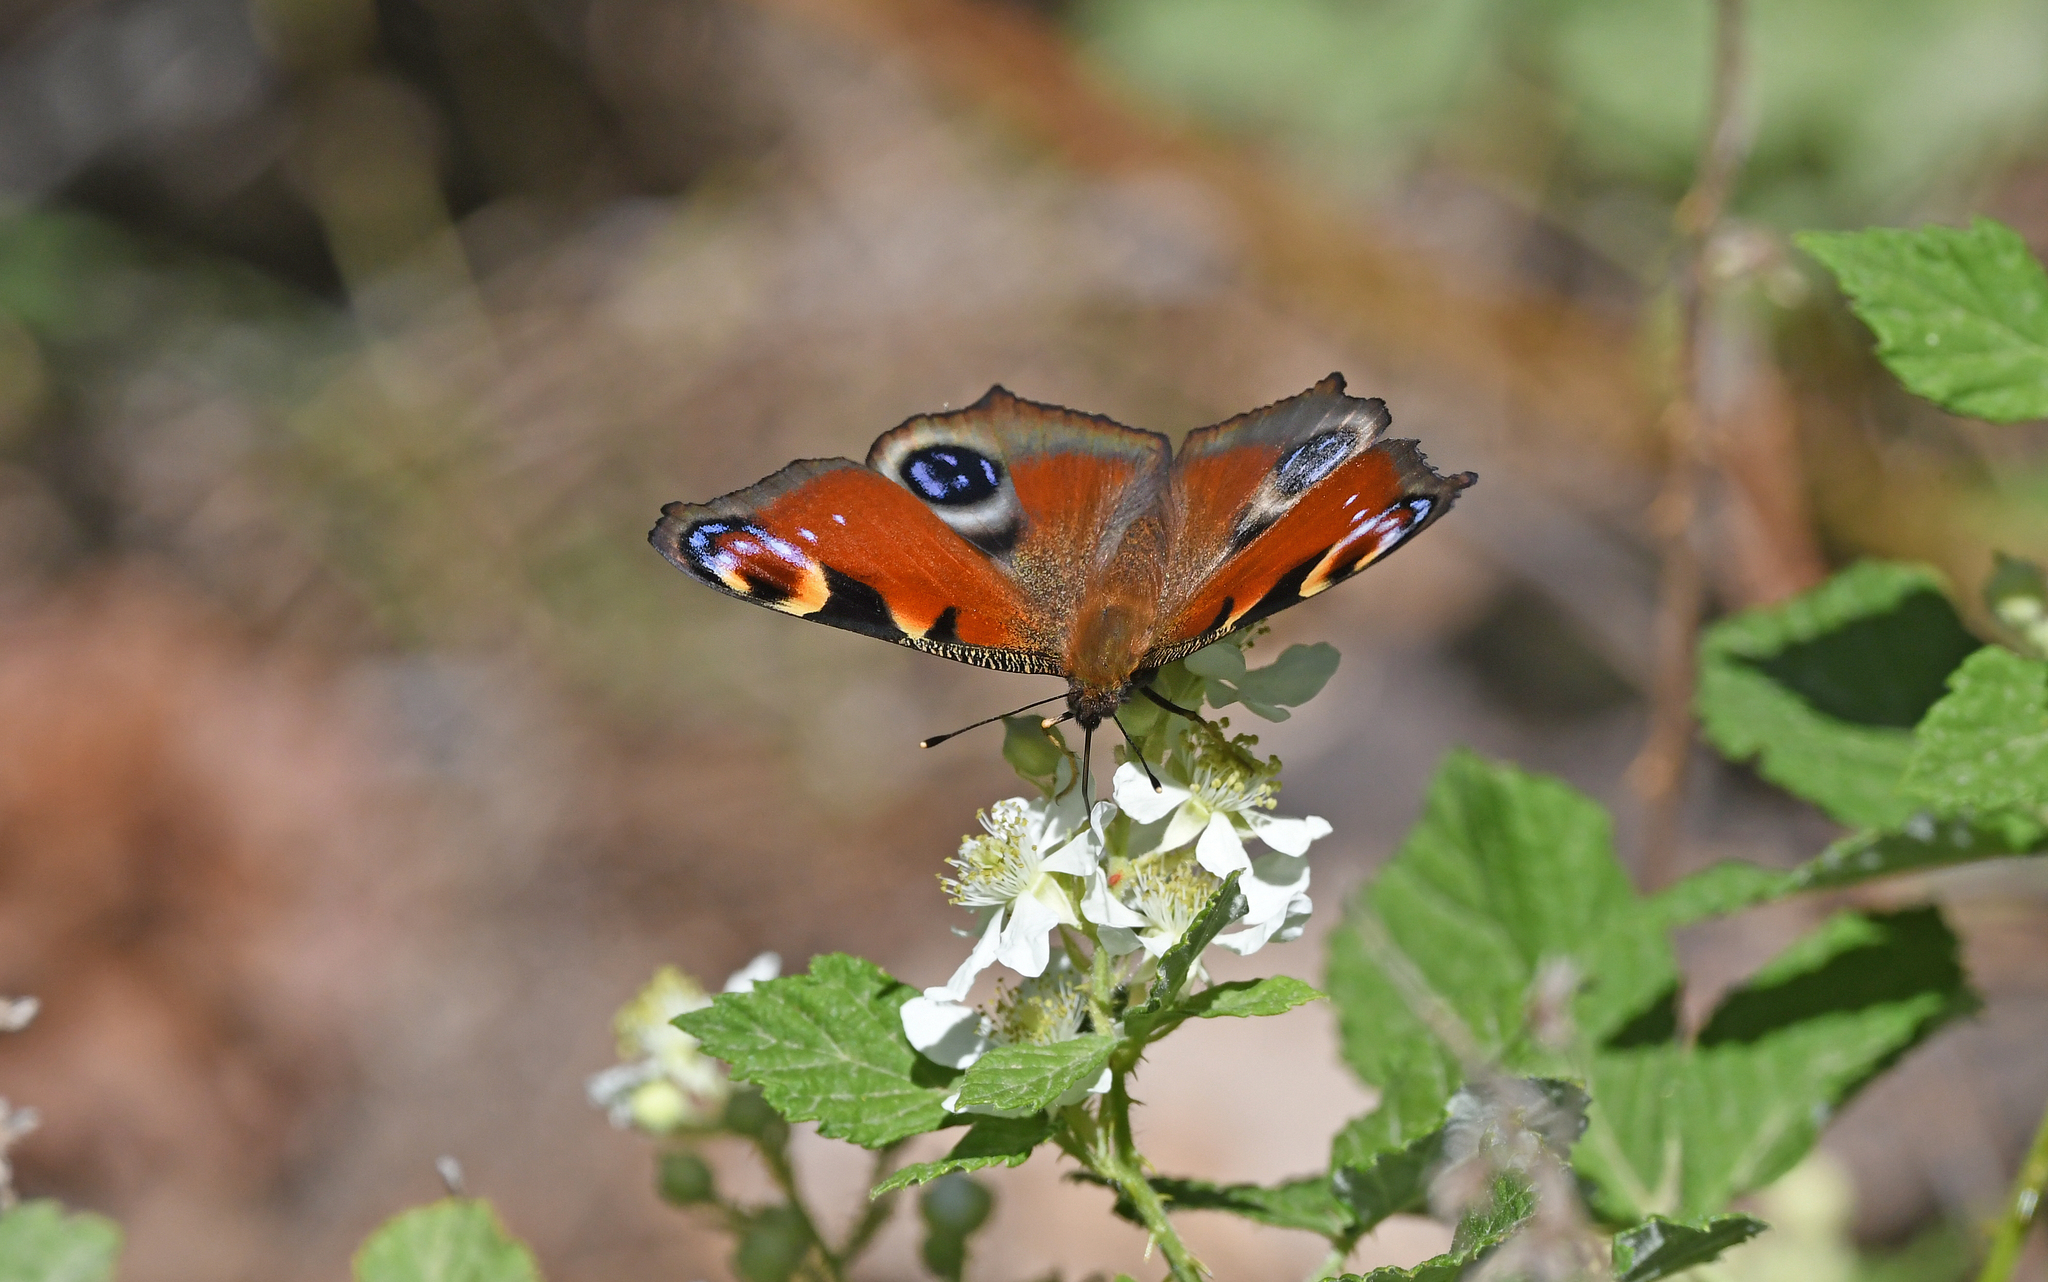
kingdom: Animalia
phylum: Arthropoda
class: Insecta
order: Lepidoptera
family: Nymphalidae
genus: Aglais
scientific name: Aglais io
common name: Peacock
